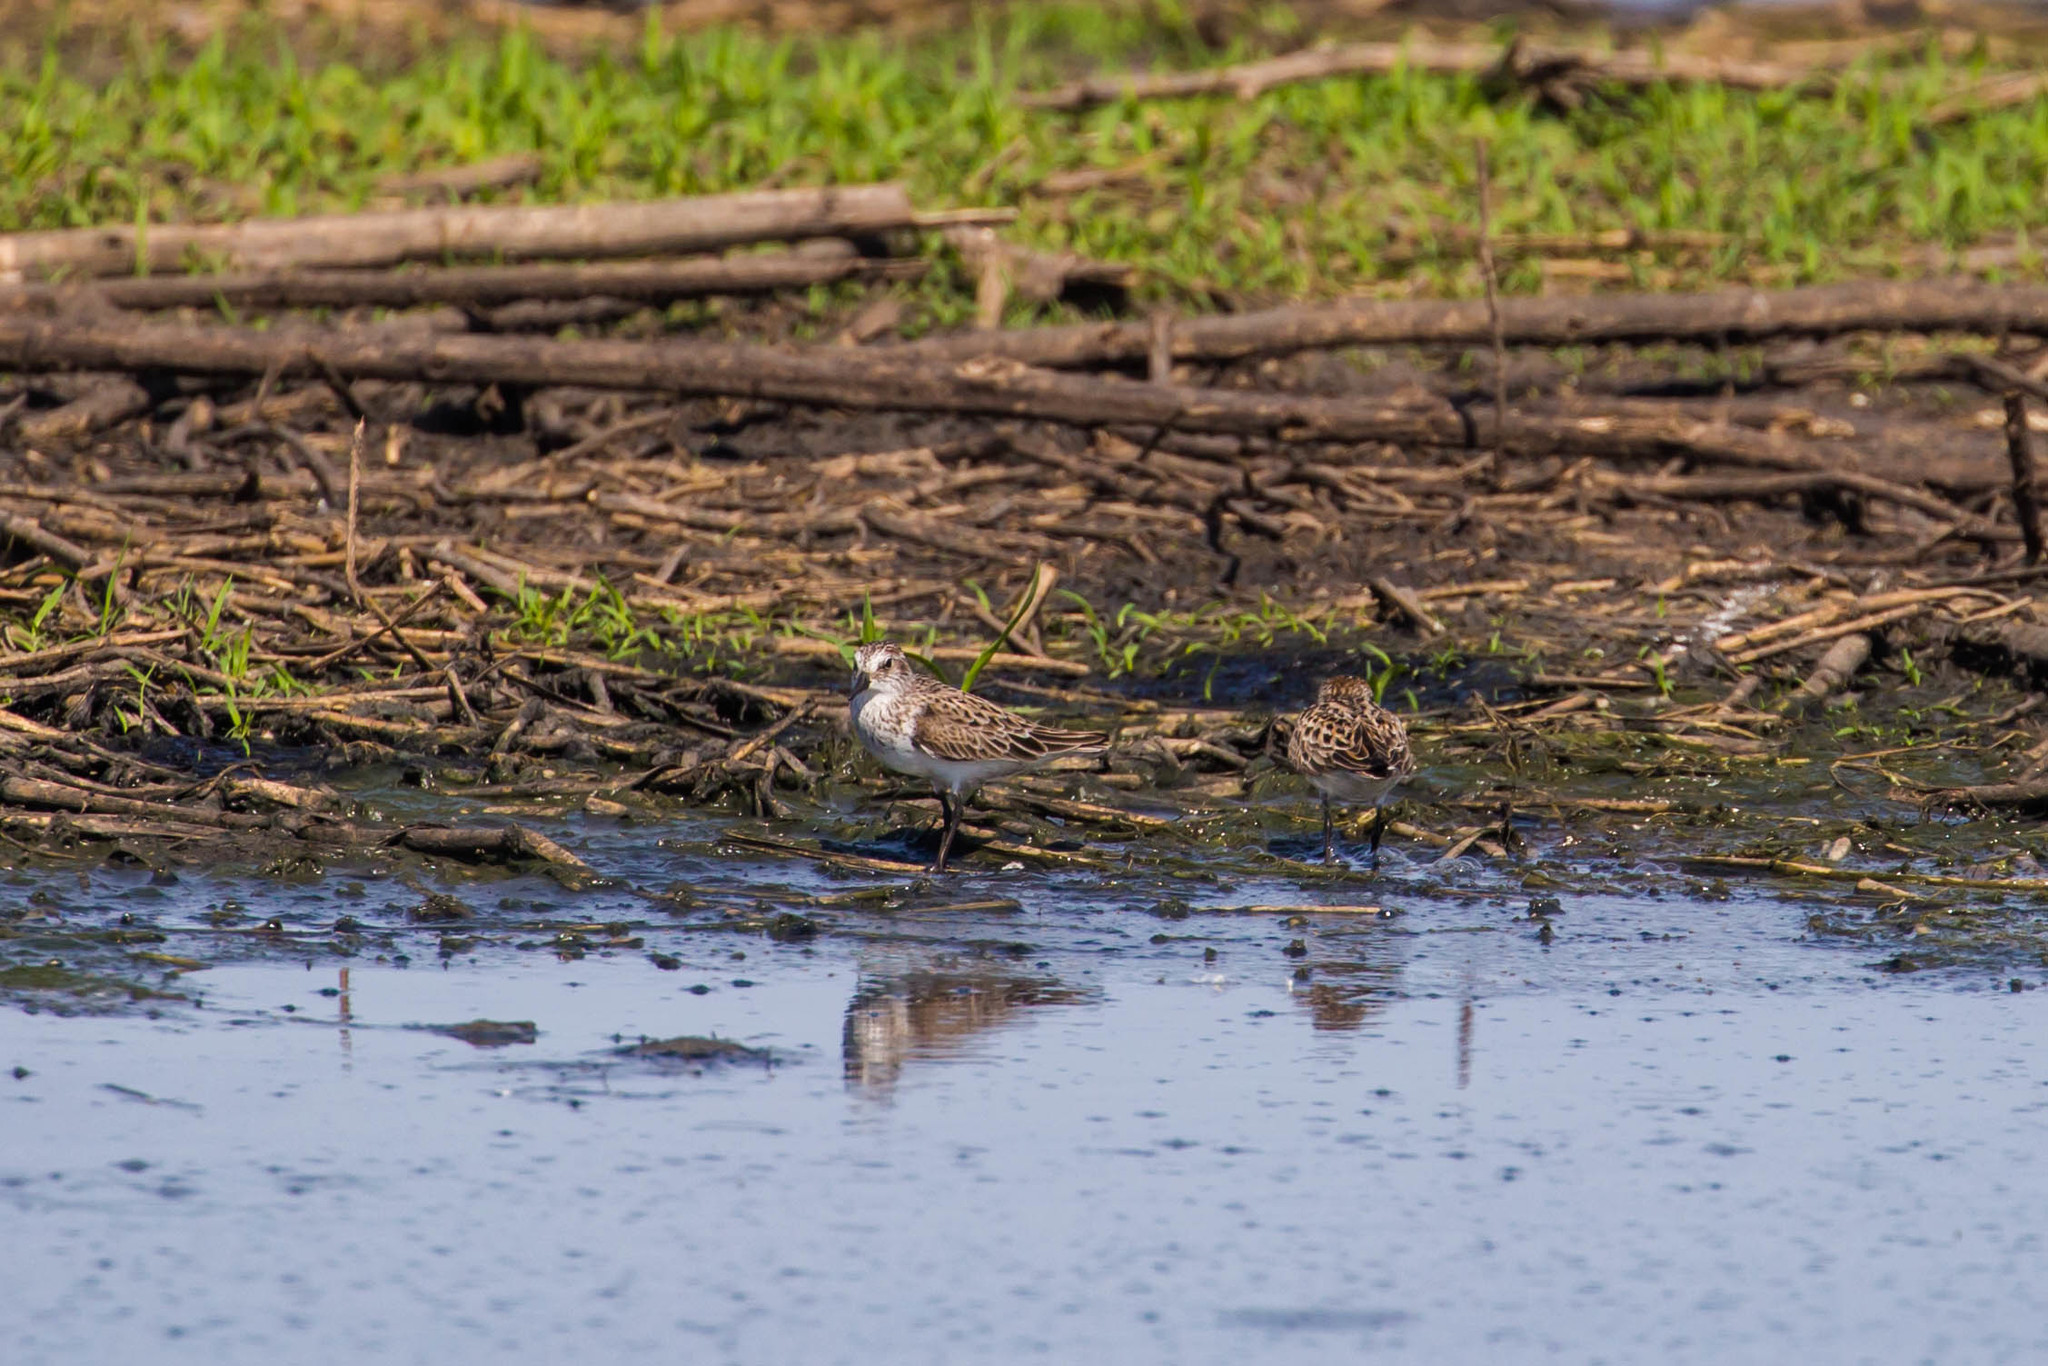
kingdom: Animalia
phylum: Chordata
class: Aves
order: Charadriiformes
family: Scolopacidae
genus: Calidris
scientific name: Calidris pusilla
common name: Semipalmated sandpiper
